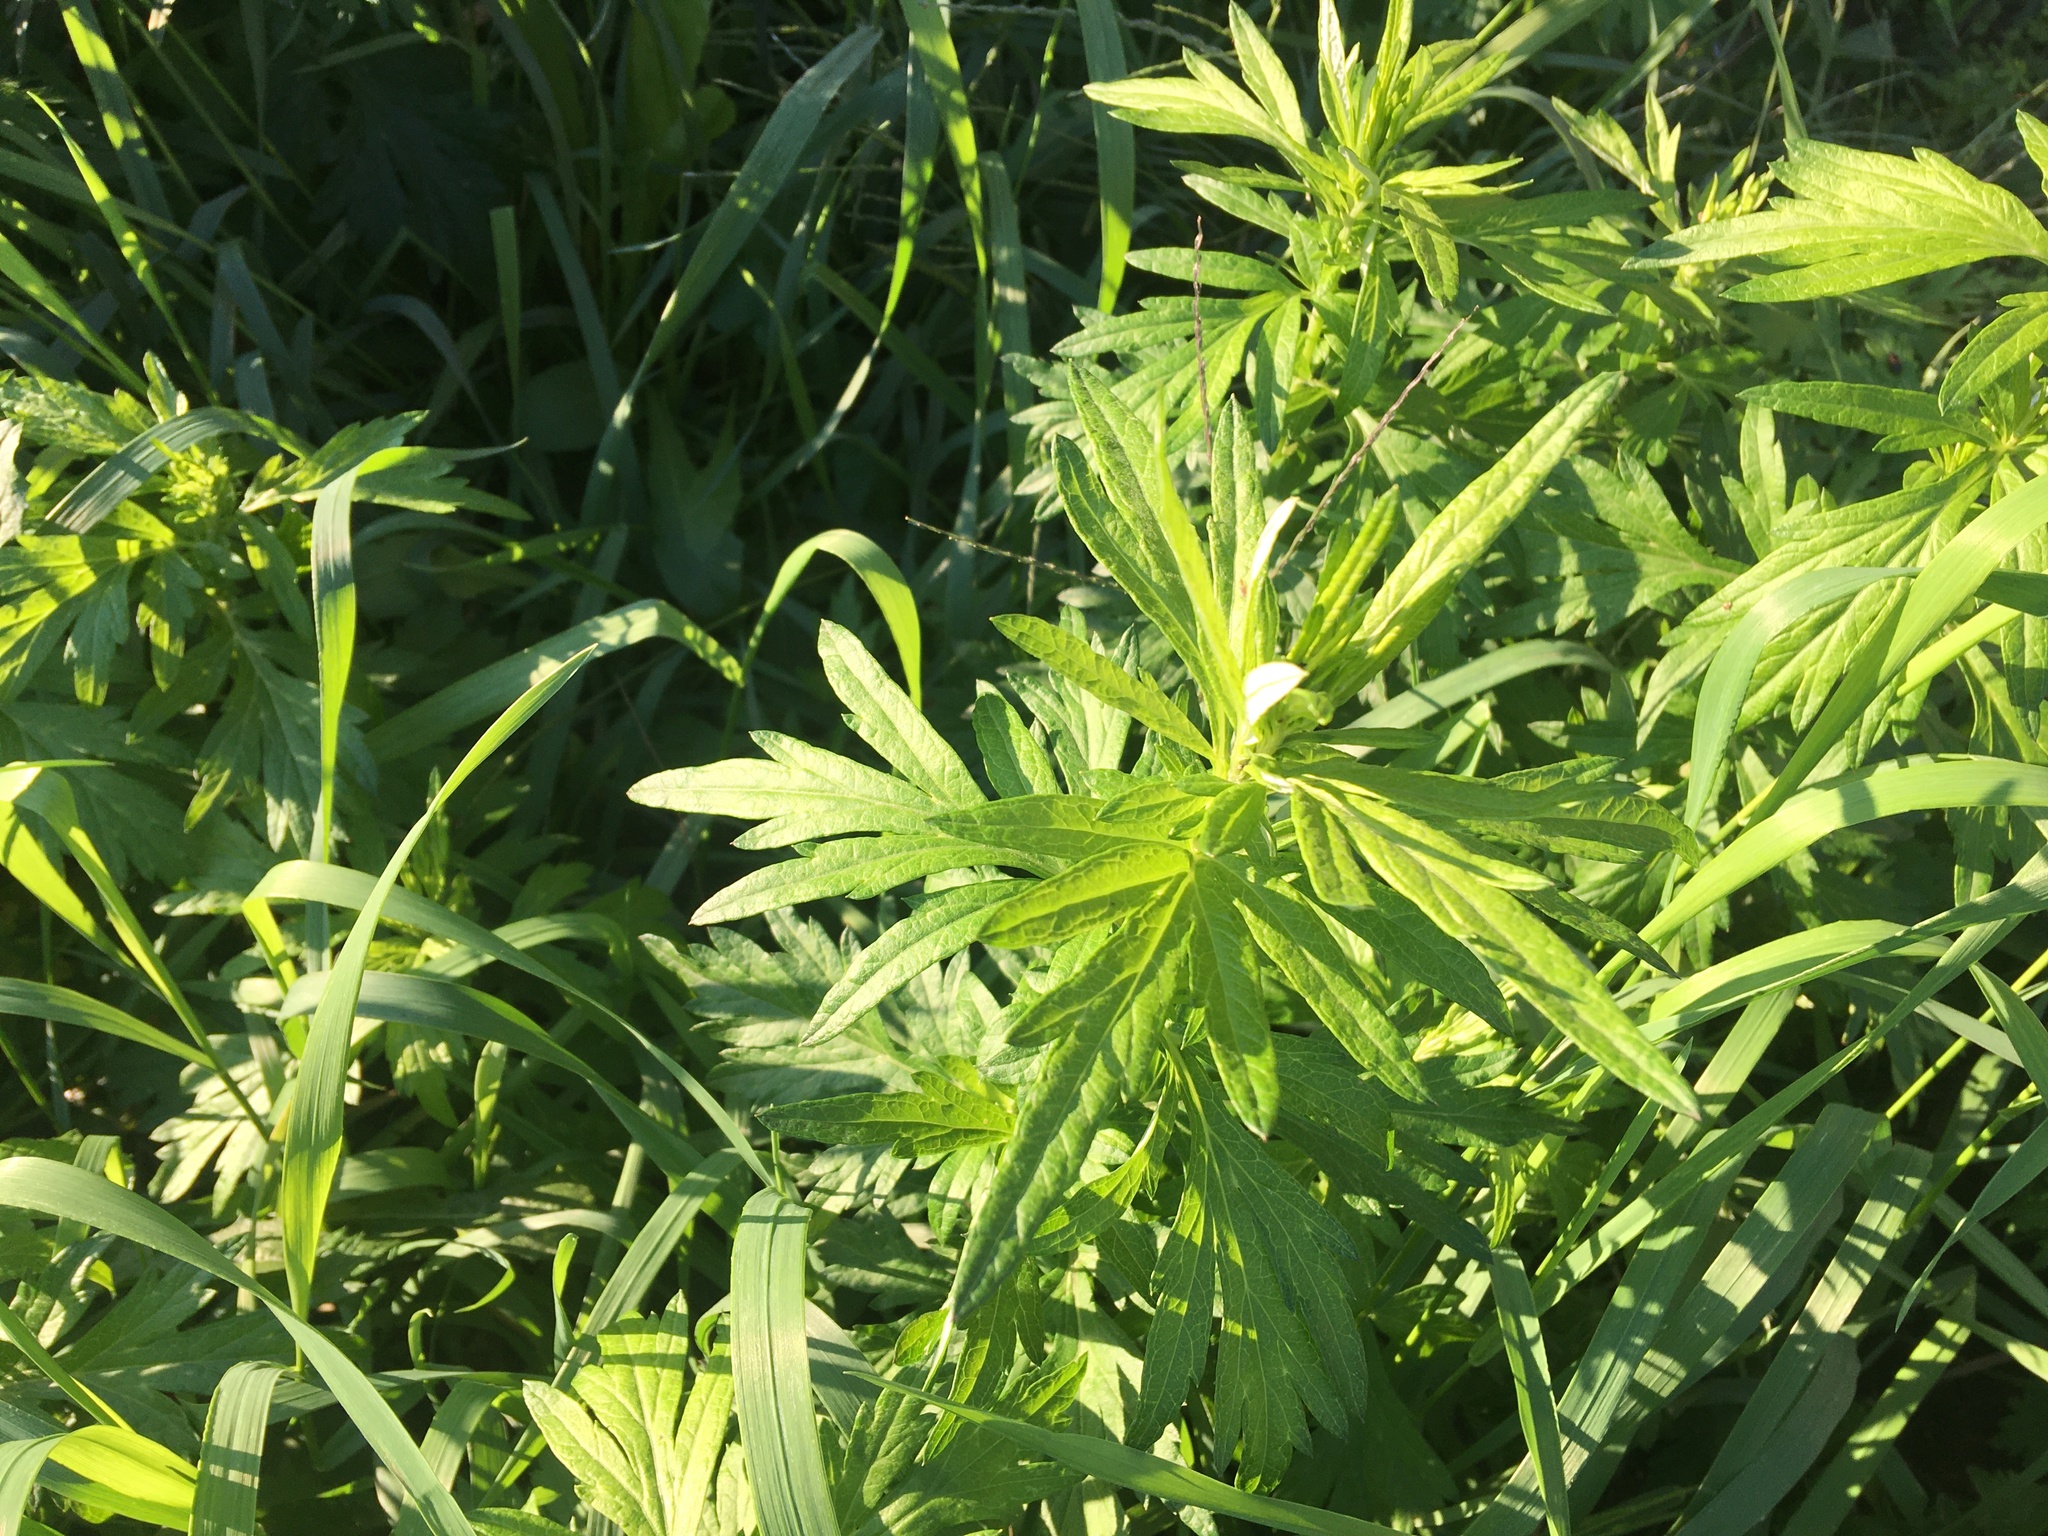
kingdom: Plantae
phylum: Tracheophyta
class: Magnoliopsida
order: Asterales
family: Asteraceae
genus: Artemisia
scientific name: Artemisia vulgaris
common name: Mugwort
